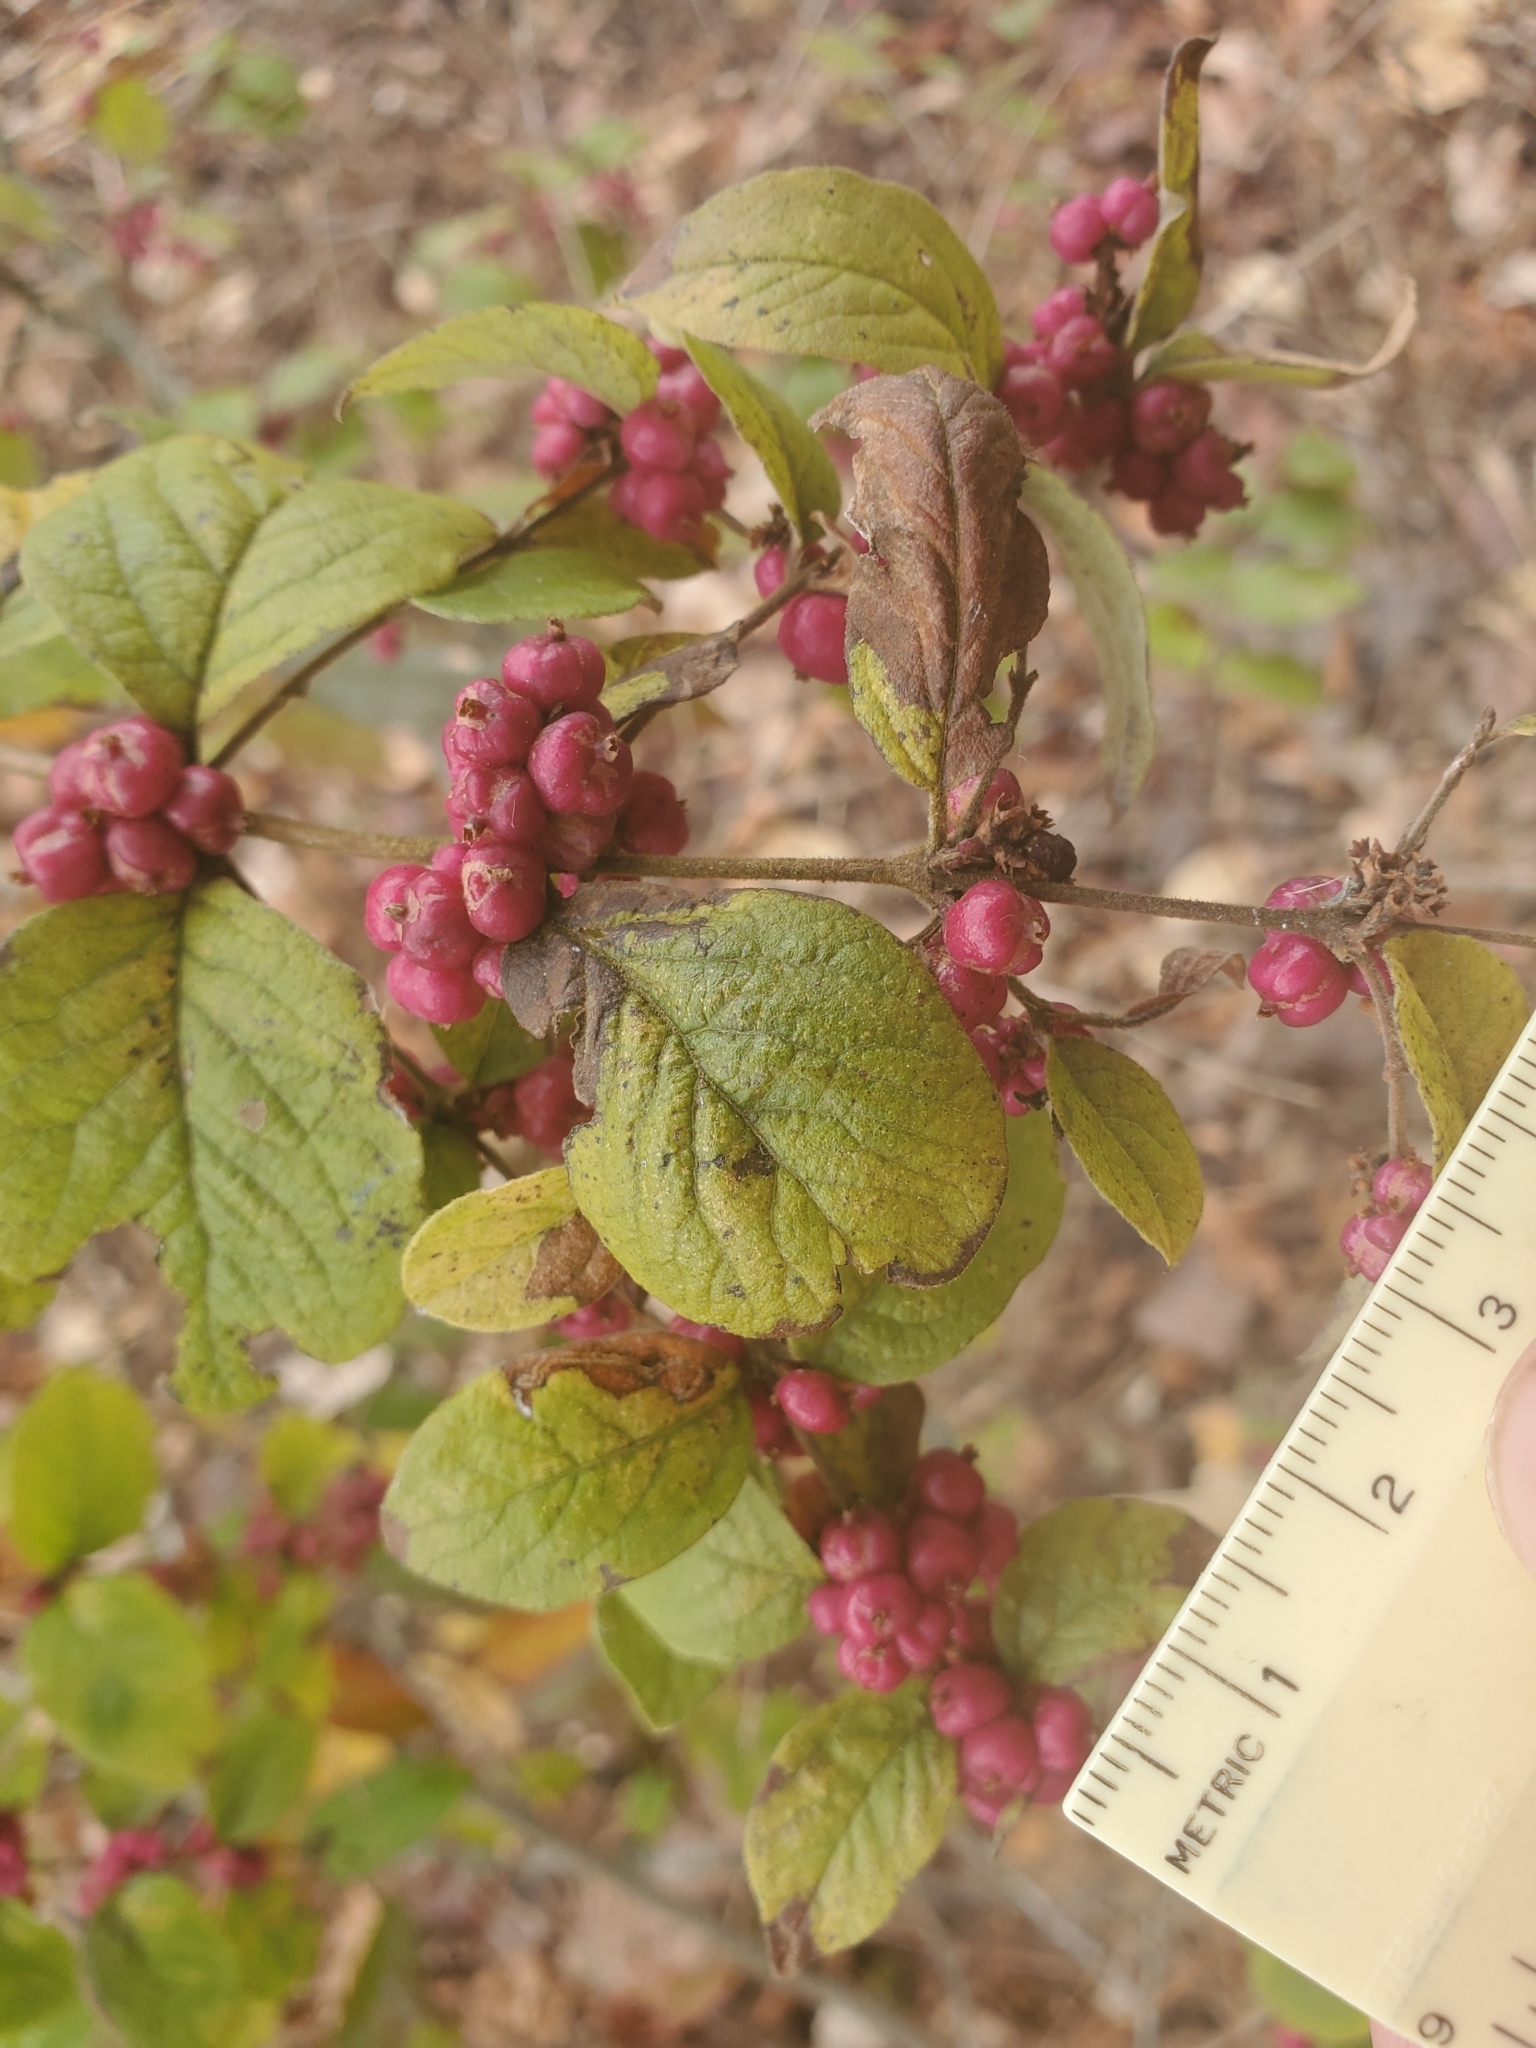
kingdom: Plantae
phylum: Tracheophyta
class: Magnoliopsida
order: Dipsacales
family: Caprifoliaceae
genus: Symphoricarpos
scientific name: Symphoricarpos orbiculatus
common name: Coralberry
